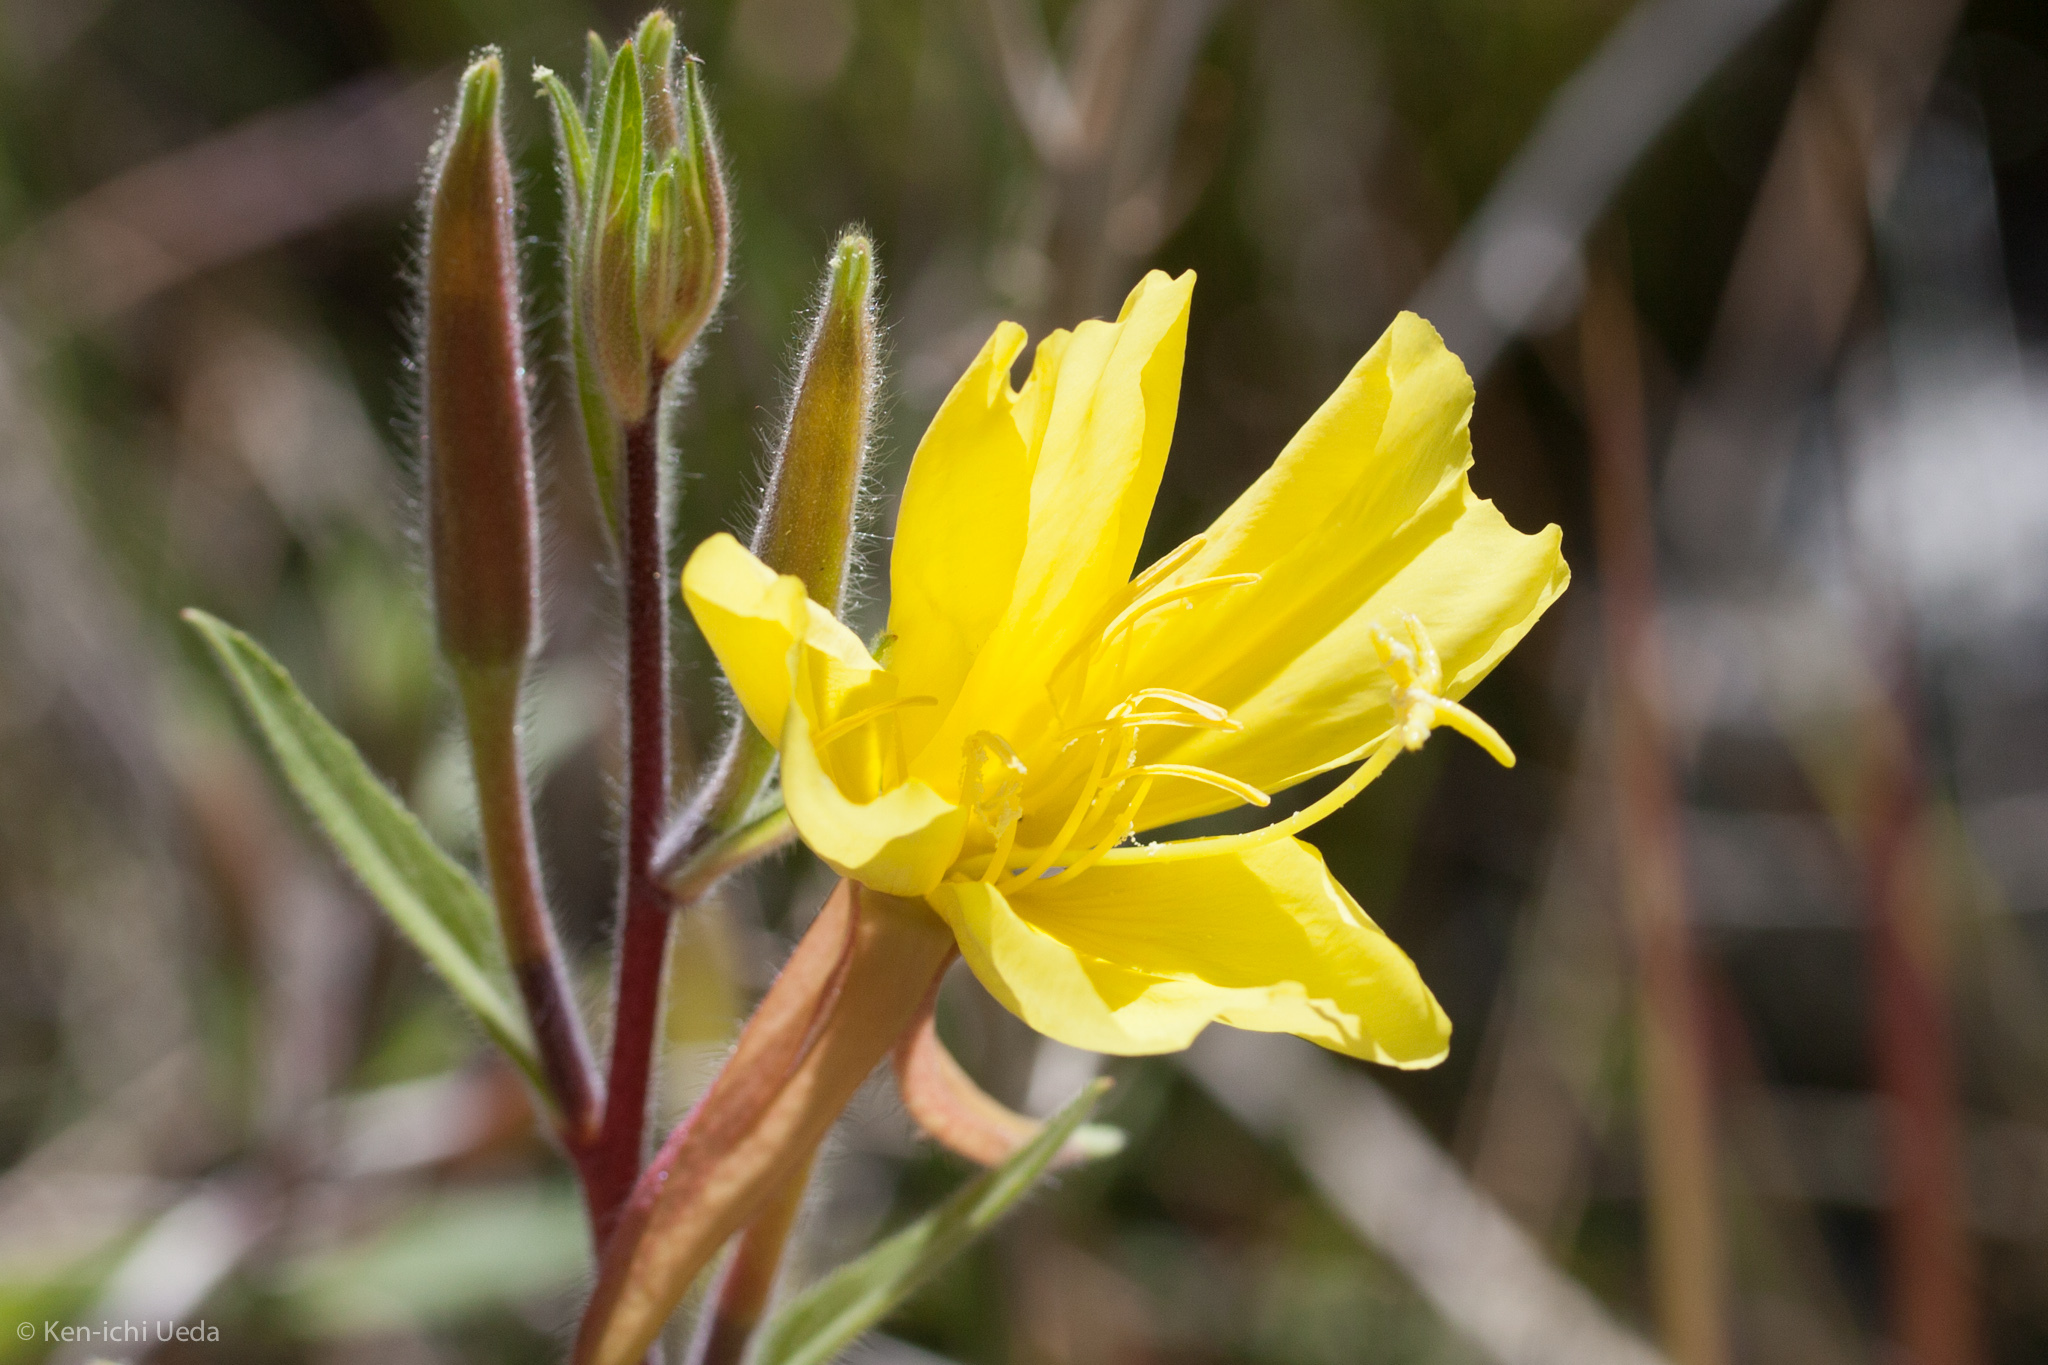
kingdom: Plantae
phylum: Tracheophyta
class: Magnoliopsida
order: Myrtales
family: Onagraceae
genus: Oenothera
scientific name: Oenothera elata
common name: Hooker's evening-primrose
